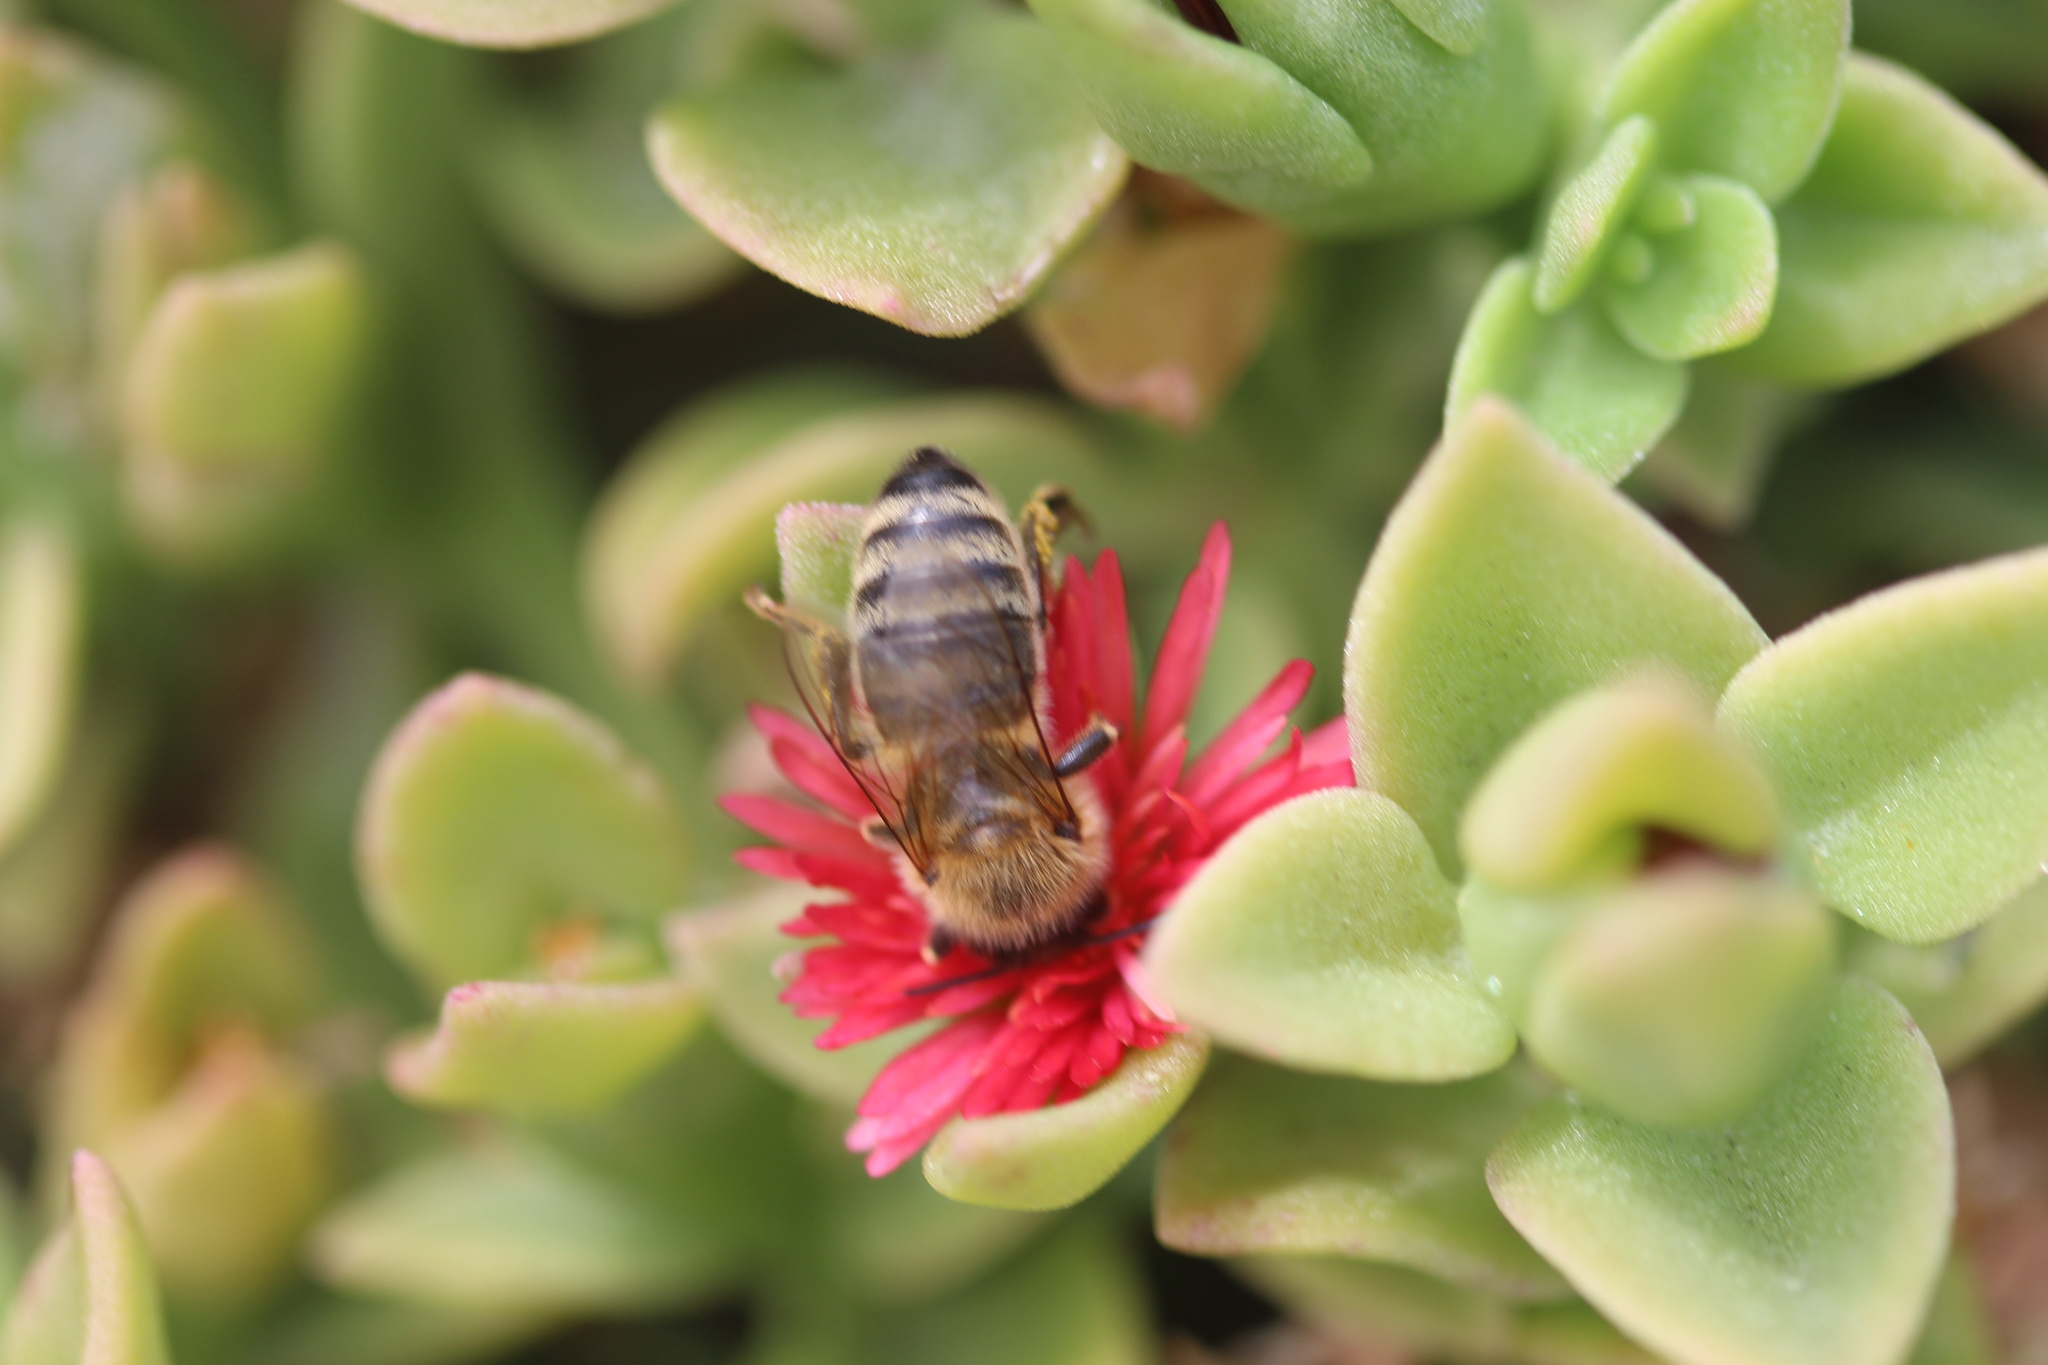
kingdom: Animalia
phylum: Arthropoda
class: Insecta
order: Hymenoptera
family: Apidae
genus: Apis
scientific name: Apis mellifera
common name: Honey bee
